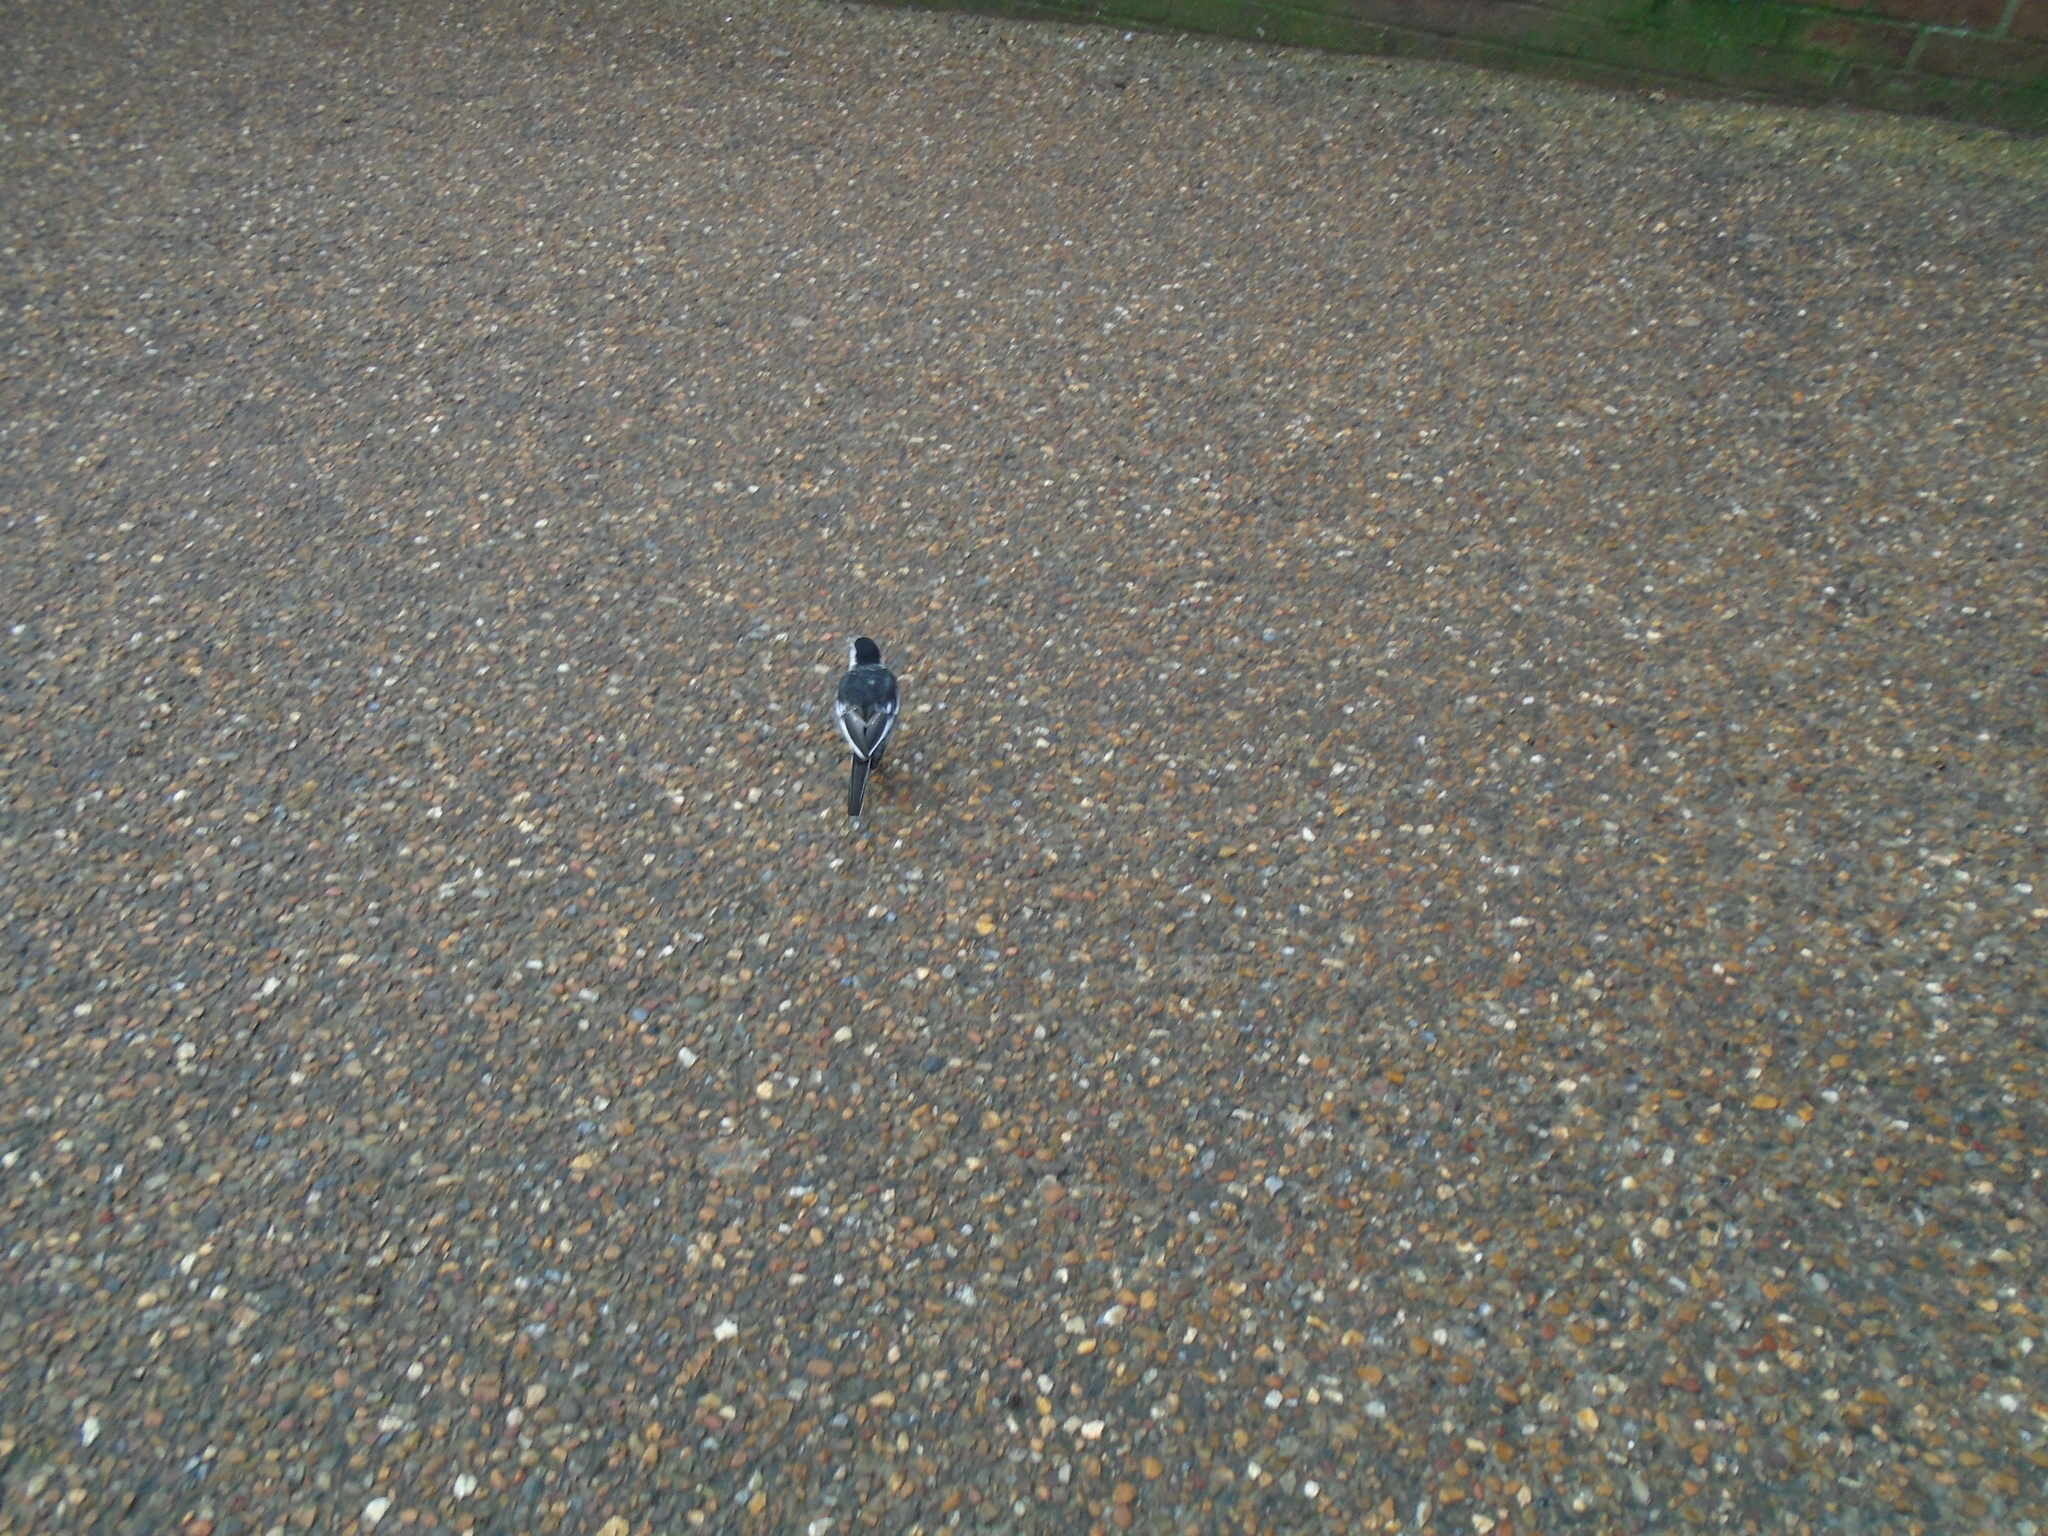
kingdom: Animalia
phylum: Chordata
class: Aves
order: Passeriformes
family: Motacillidae
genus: Motacilla
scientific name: Motacilla alba
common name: White wagtail
